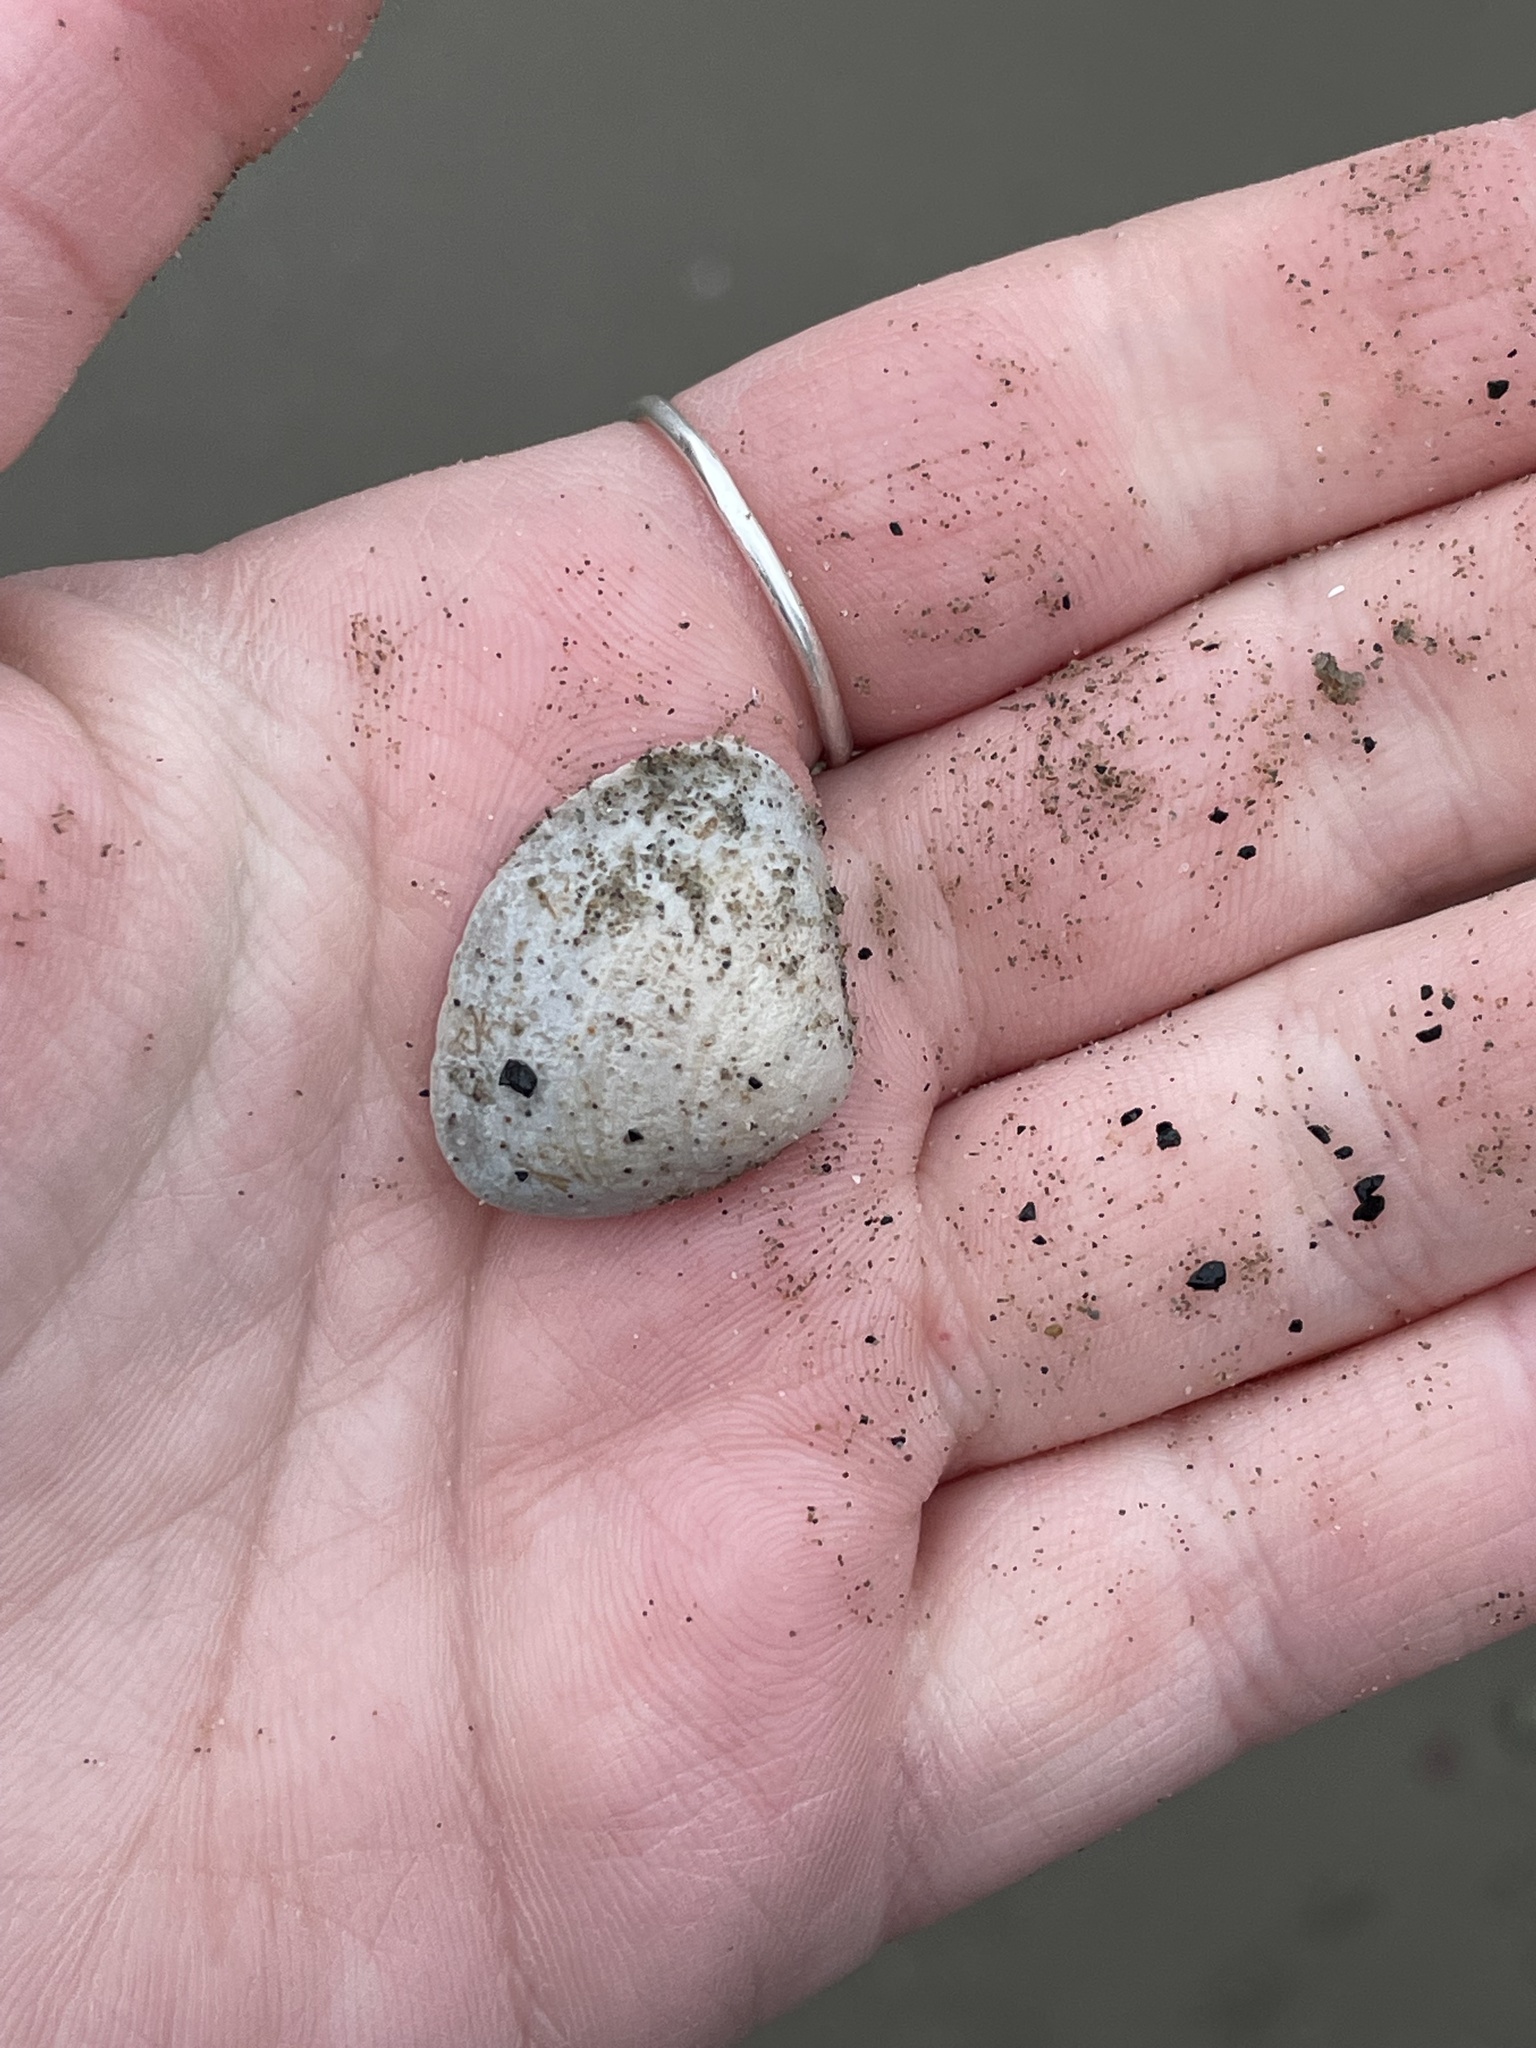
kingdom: Animalia
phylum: Mollusca
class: Bivalvia
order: Venerida
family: Mactridae
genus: Spisula
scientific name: Spisula solidissima
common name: Atlantic surf clam
